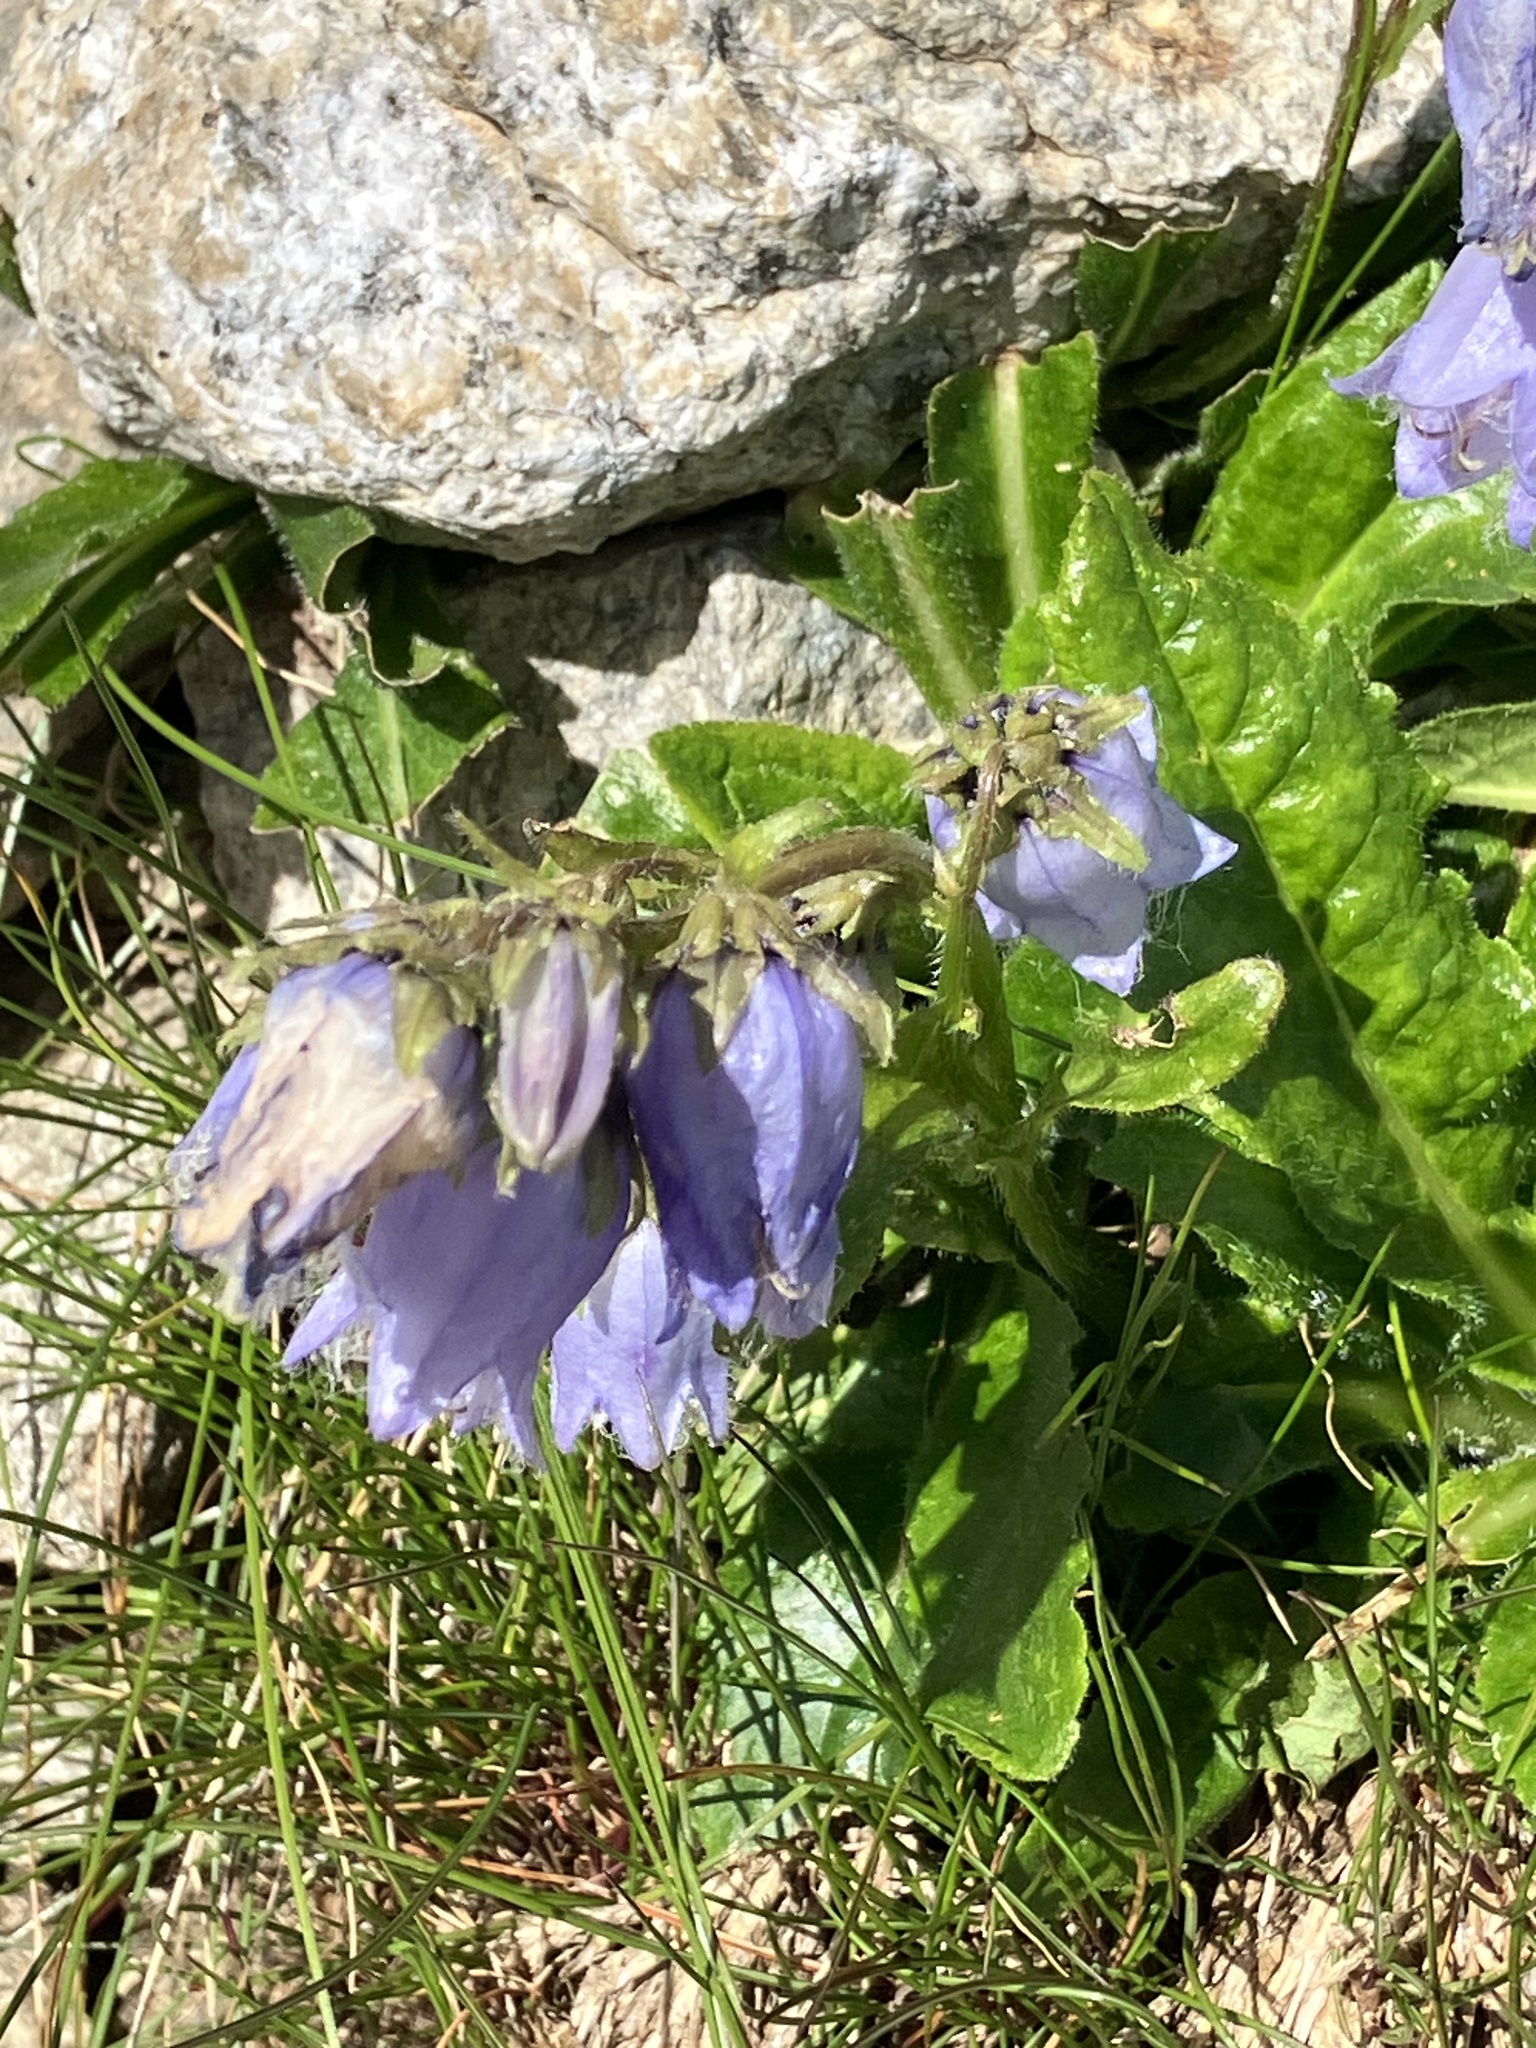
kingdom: Plantae
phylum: Tracheophyta
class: Magnoliopsida
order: Asterales
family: Campanulaceae
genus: Campanula
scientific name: Campanula barbata
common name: Bearded bellflower
